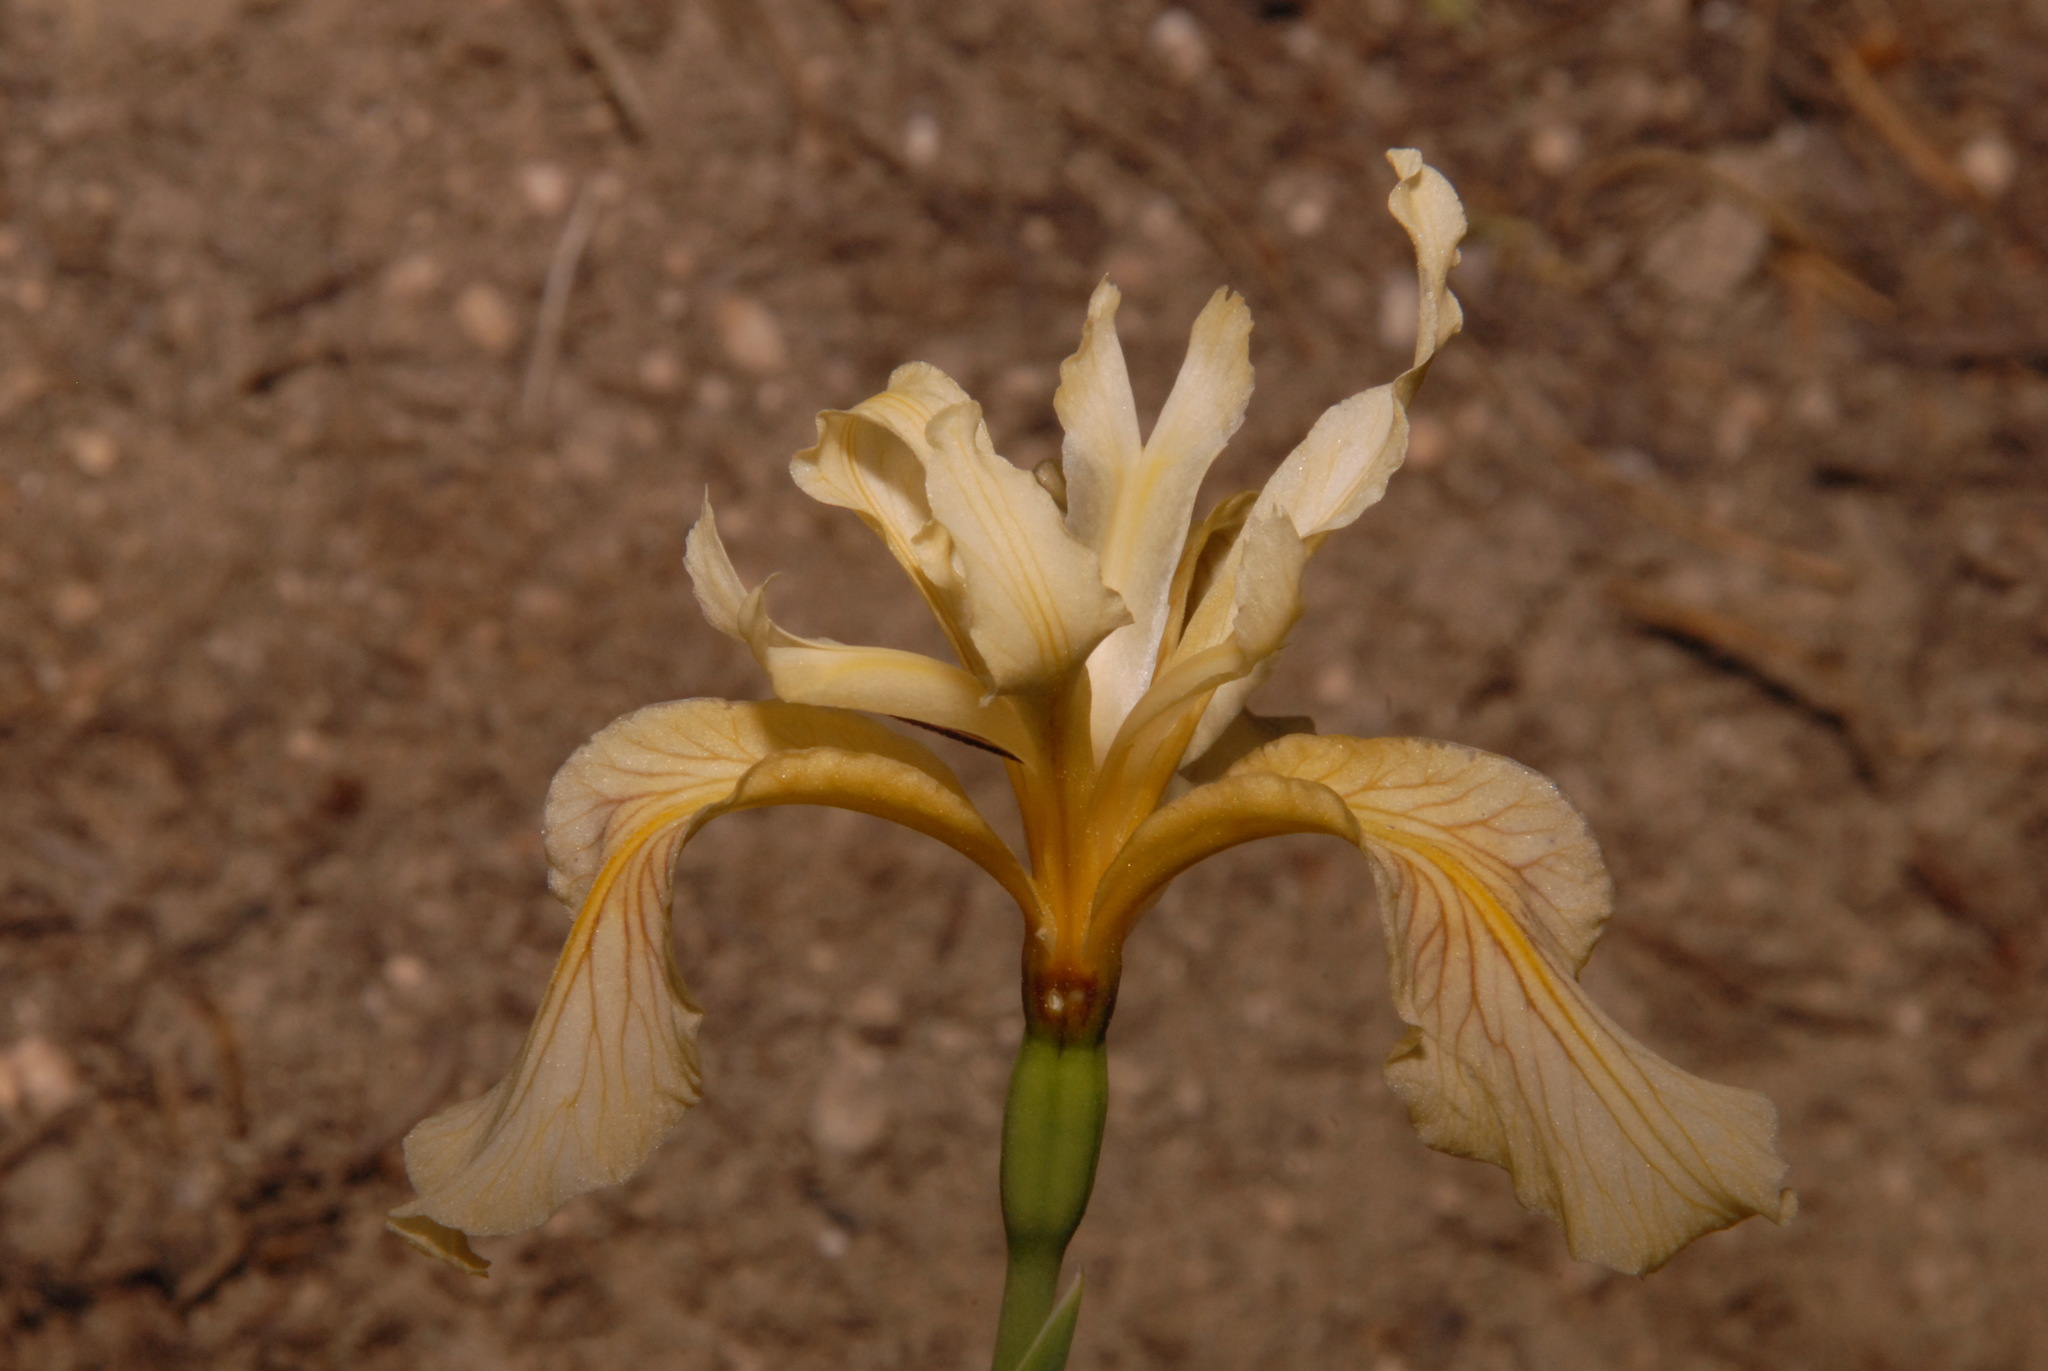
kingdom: Plantae
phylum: Tracheophyta
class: Liliopsida
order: Asparagales
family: Iridaceae
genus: Iris
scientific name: Iris hartwegii
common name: Sierra iris
